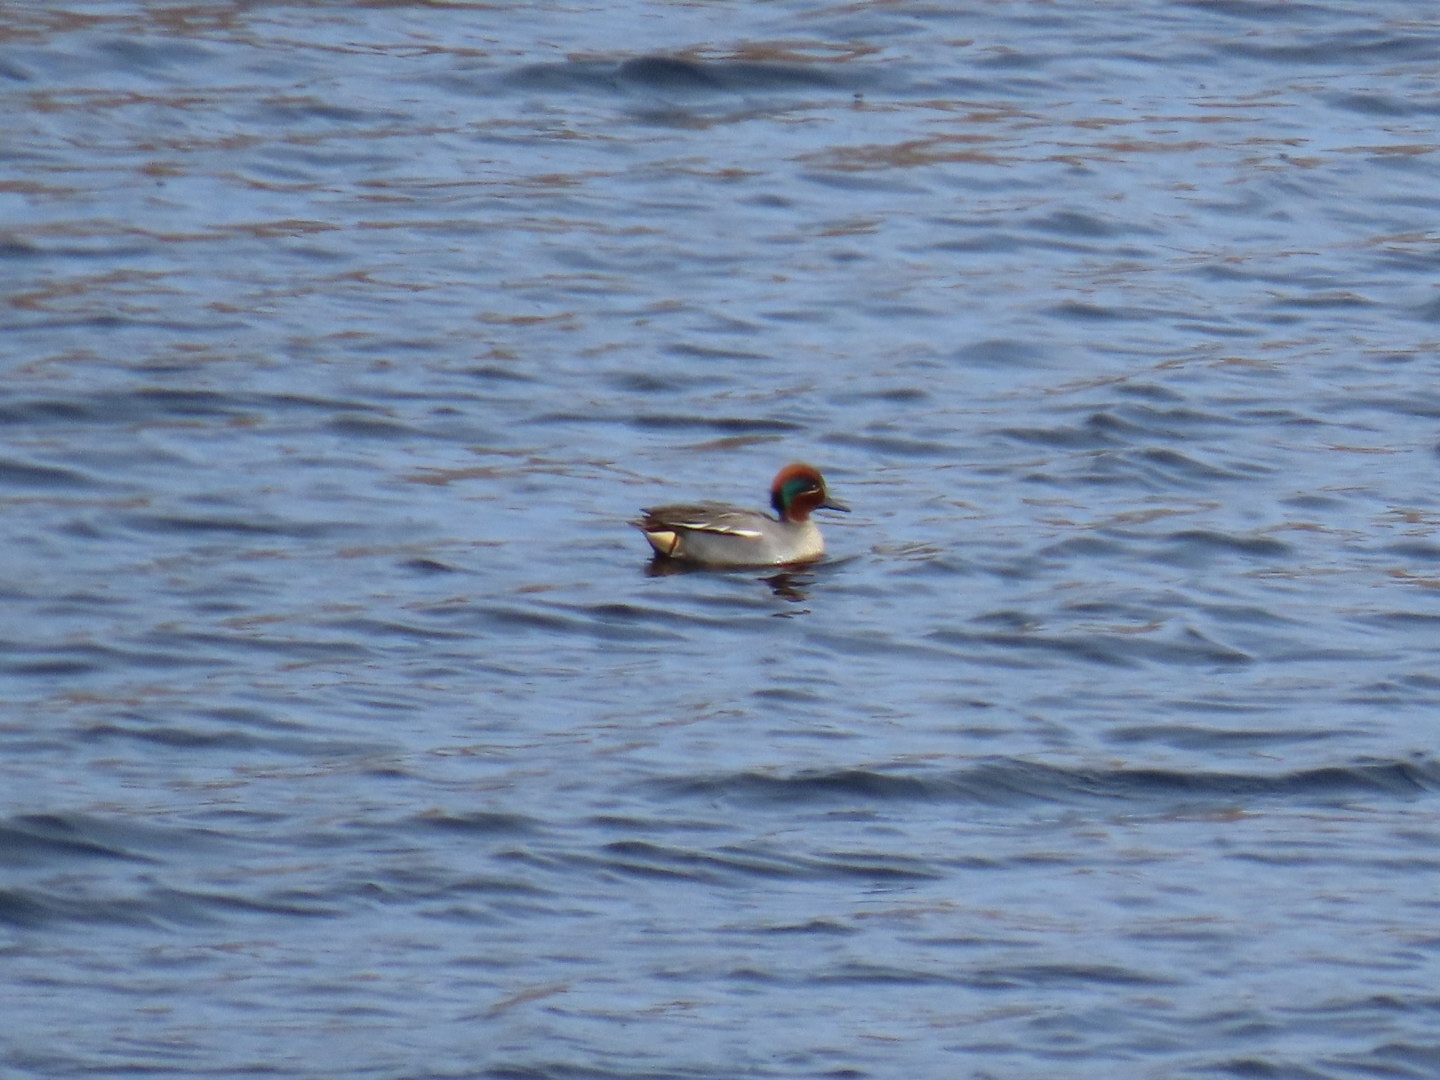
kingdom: Animalia
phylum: Chordata
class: Aves
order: Anseriformes
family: Anatidae
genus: Anas
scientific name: Anas crecca
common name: Eurasian teal
